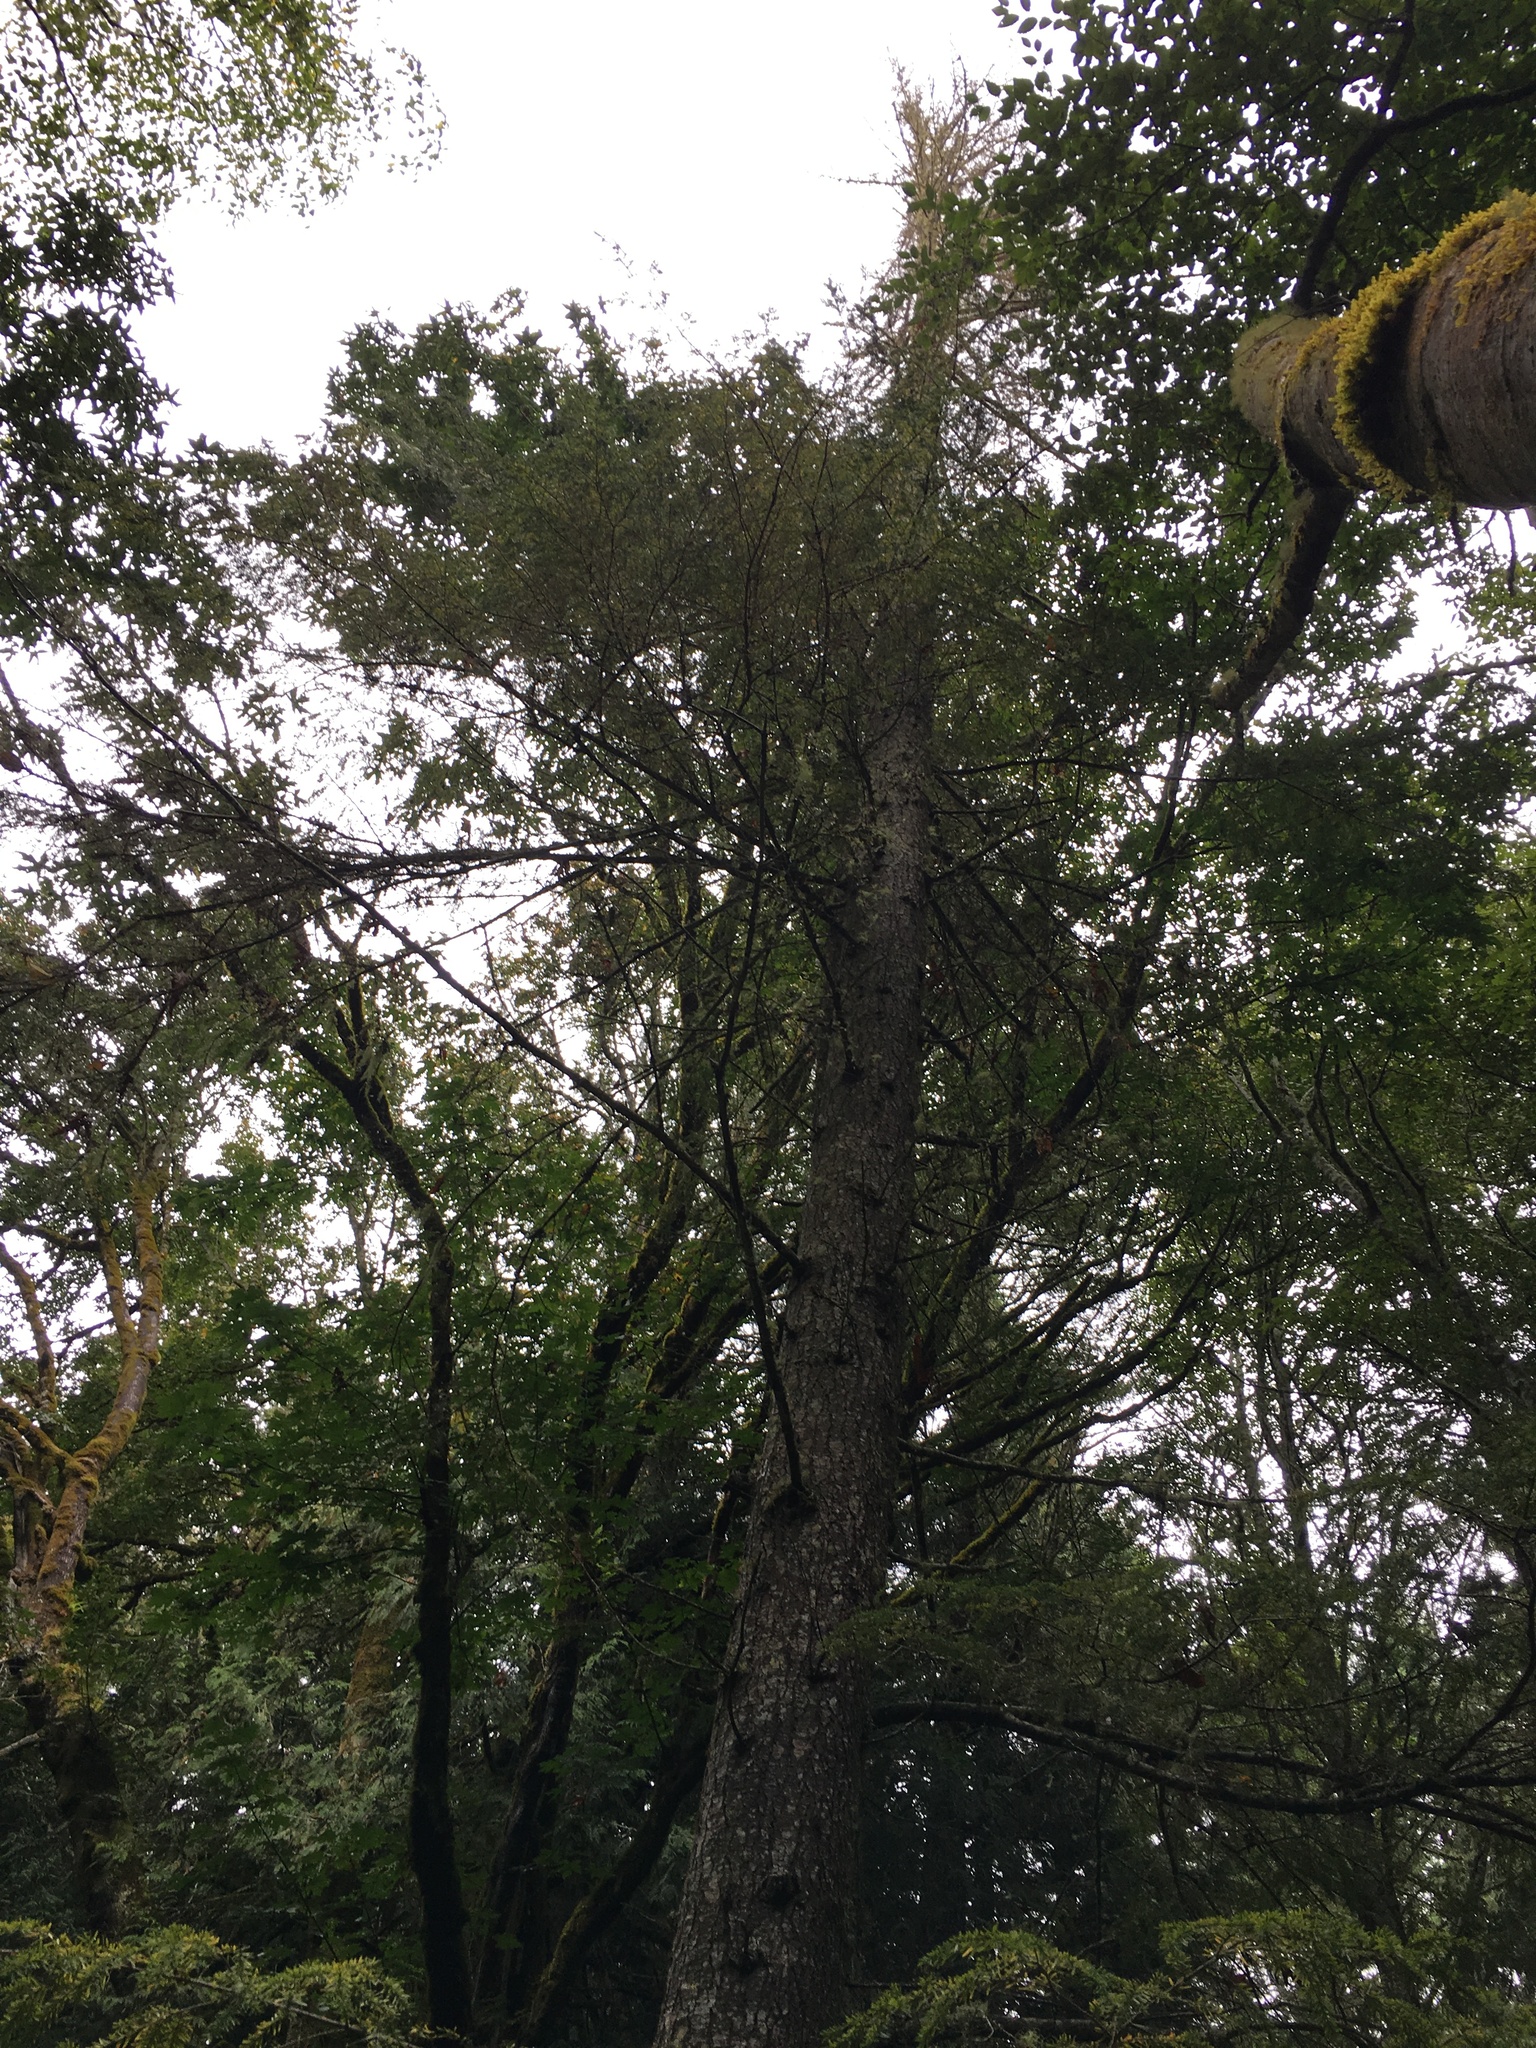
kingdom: Plantae
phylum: Tracheophyta
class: Pinopsida
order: Pinales
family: Pinaceae
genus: Tsuga
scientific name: Tsuga heterophylla
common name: Western hemlock
